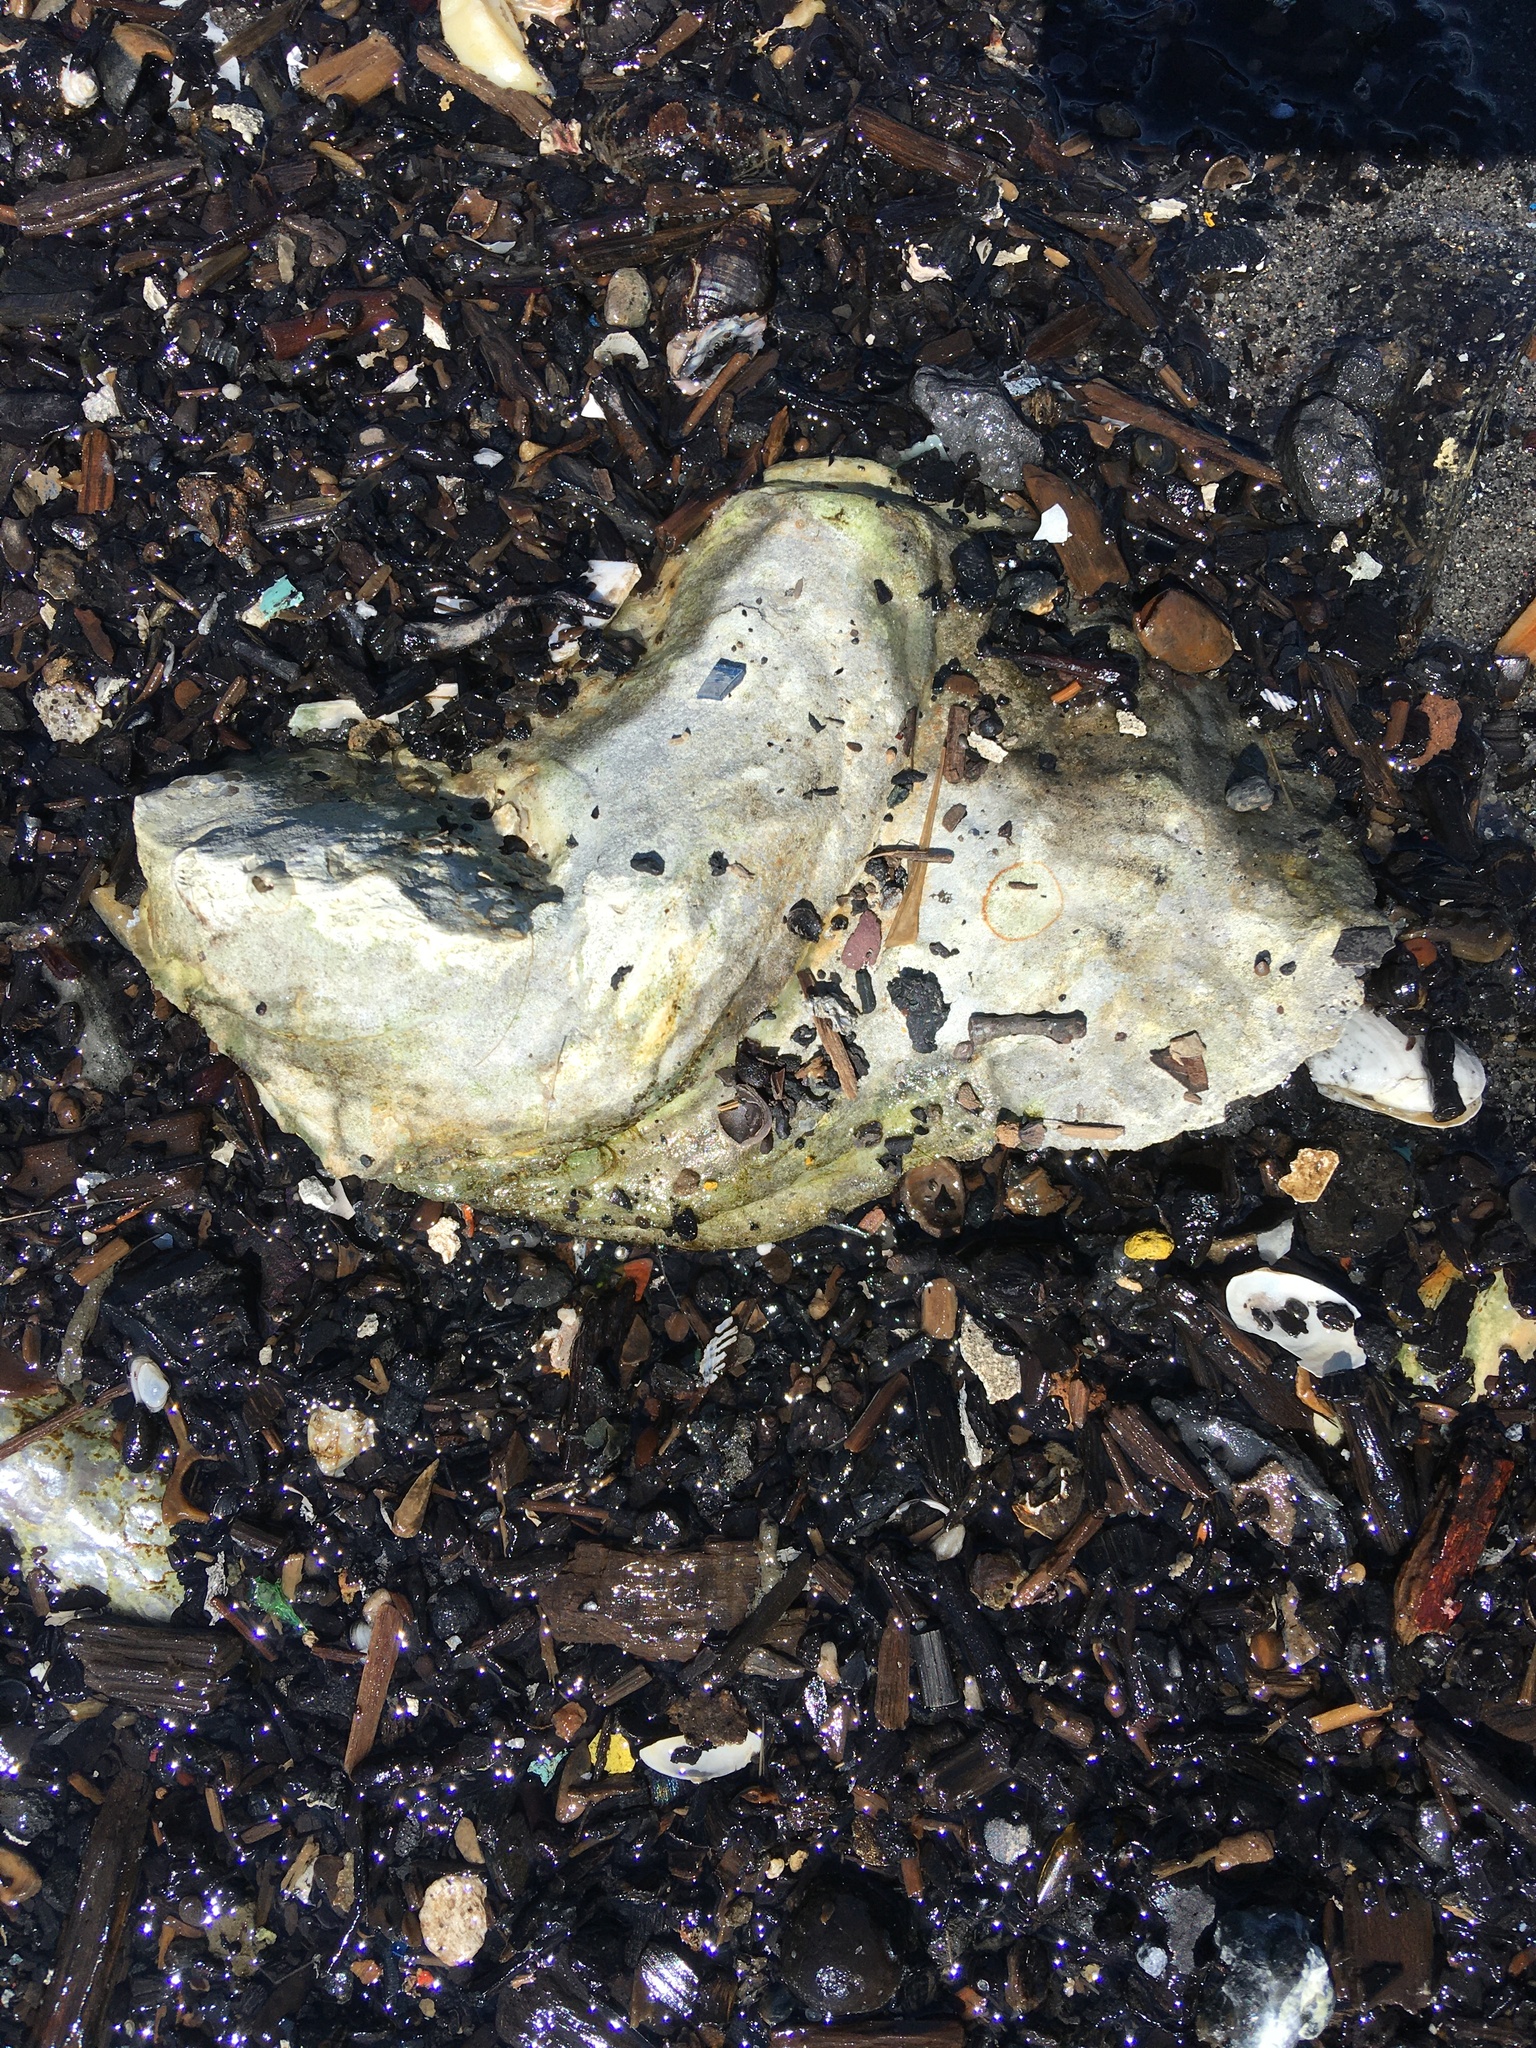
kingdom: Animalia
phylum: Mollusca
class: Bivalvia
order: Ostreida
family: Ostreidae
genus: Crassostrea
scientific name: Crassostrea virginica
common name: American oyster
